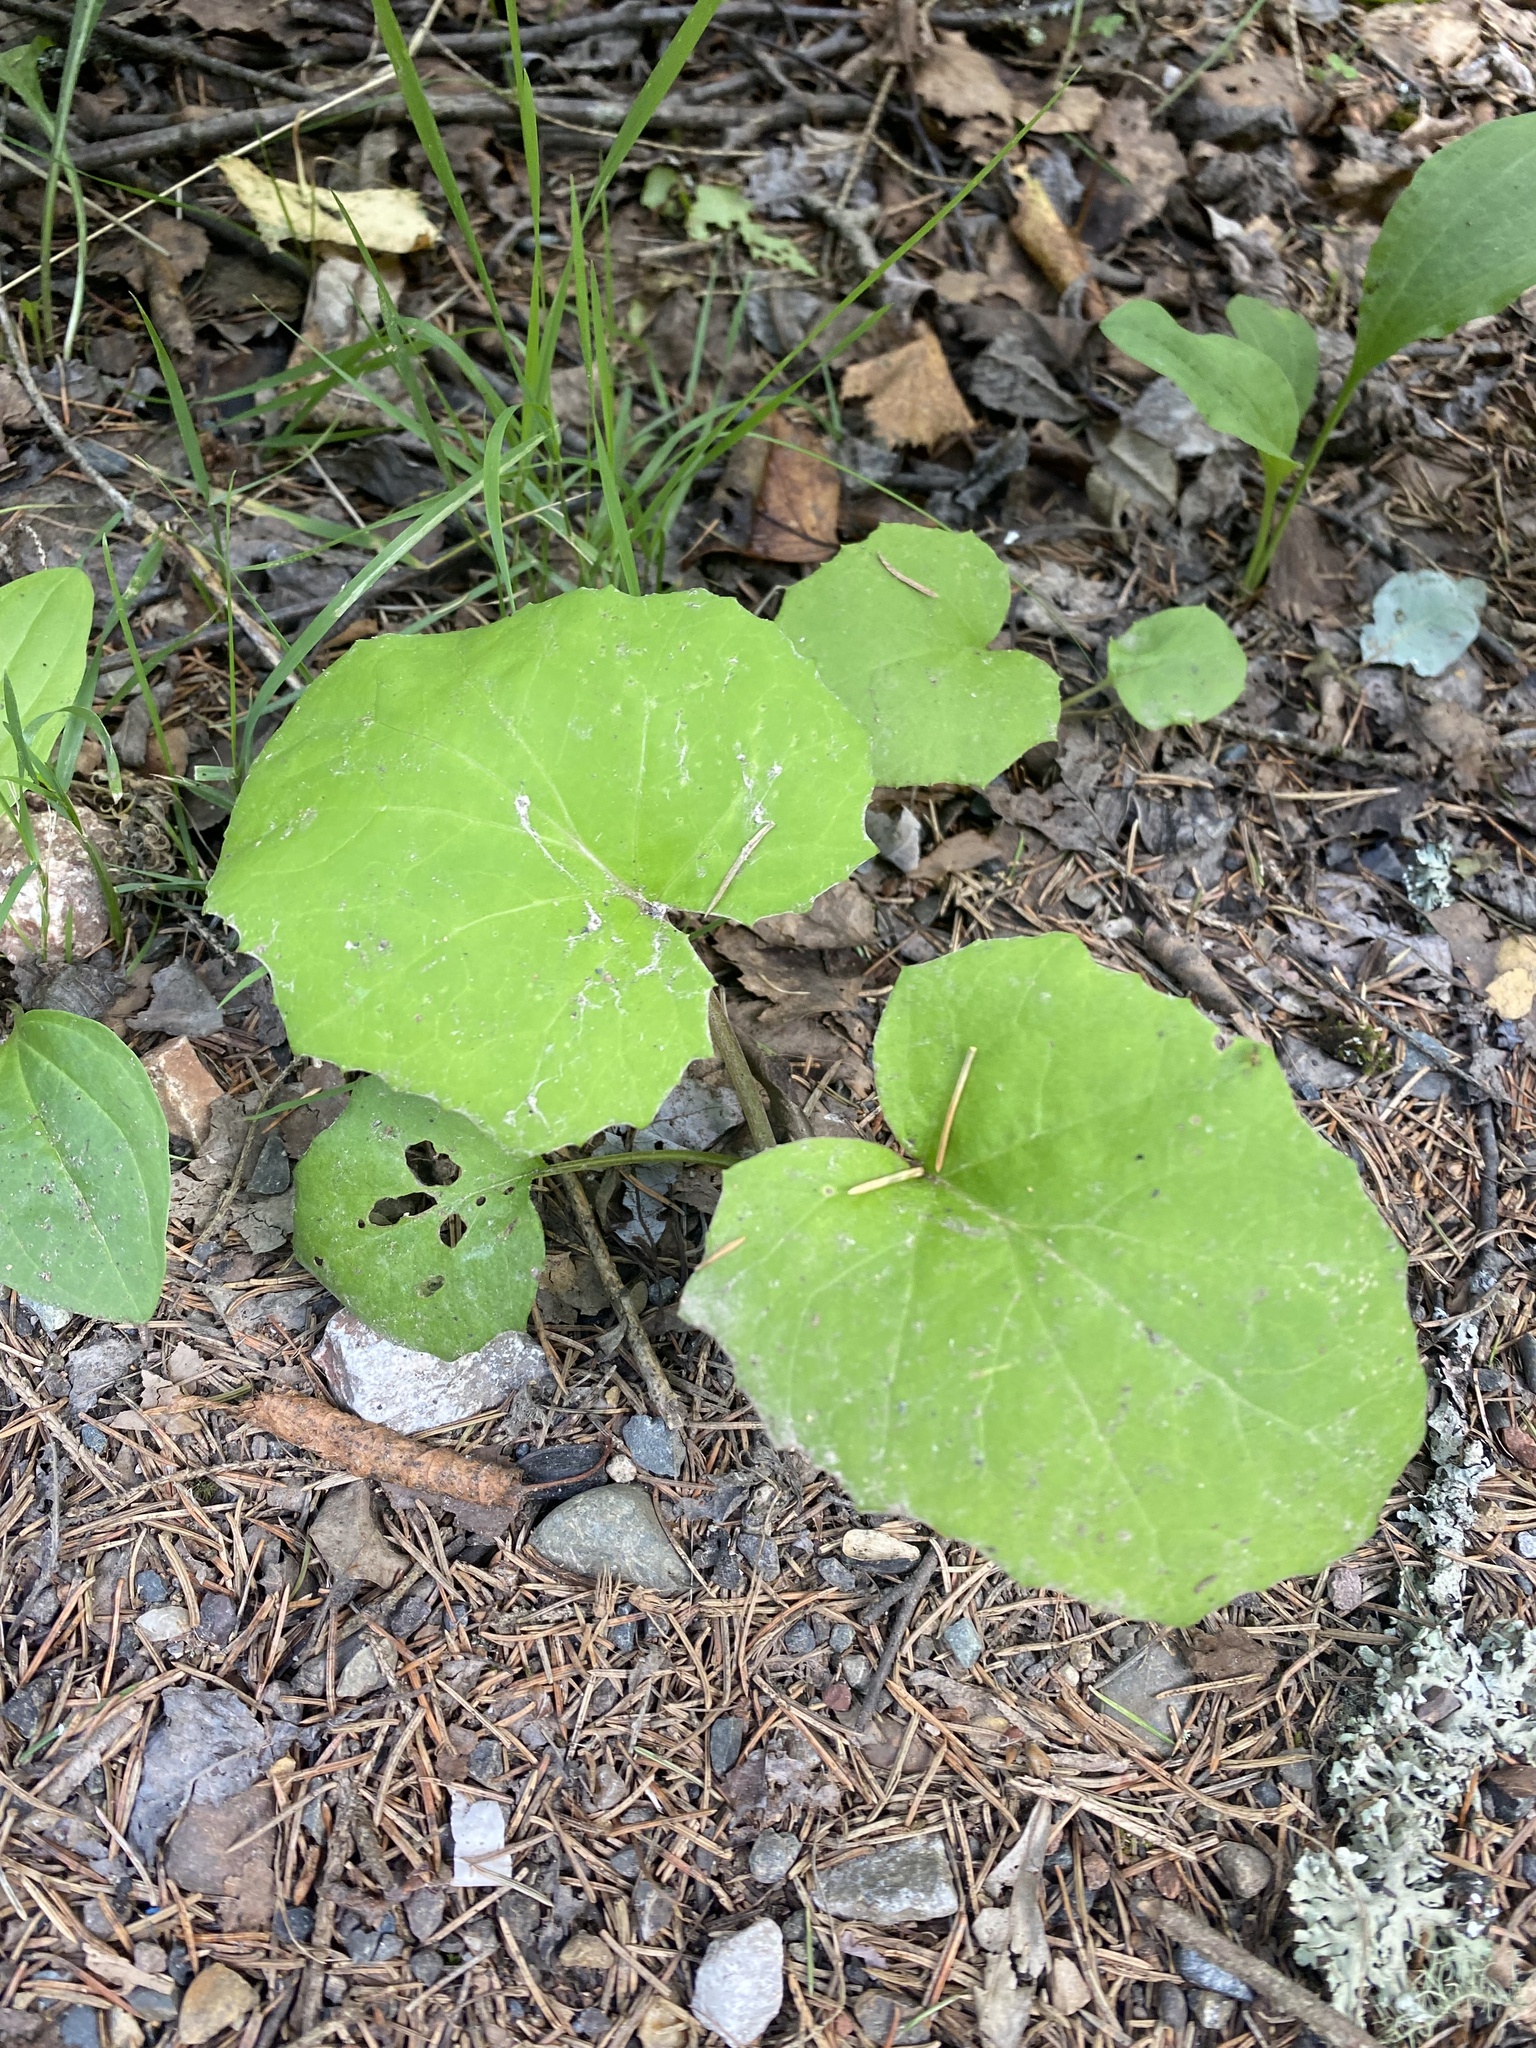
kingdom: Plantae
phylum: Tracheophyta
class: Magnoliopsida
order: Asterales
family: Asteraceae
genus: Tussilago
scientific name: Tussilago farfara
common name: Coltsfoot
